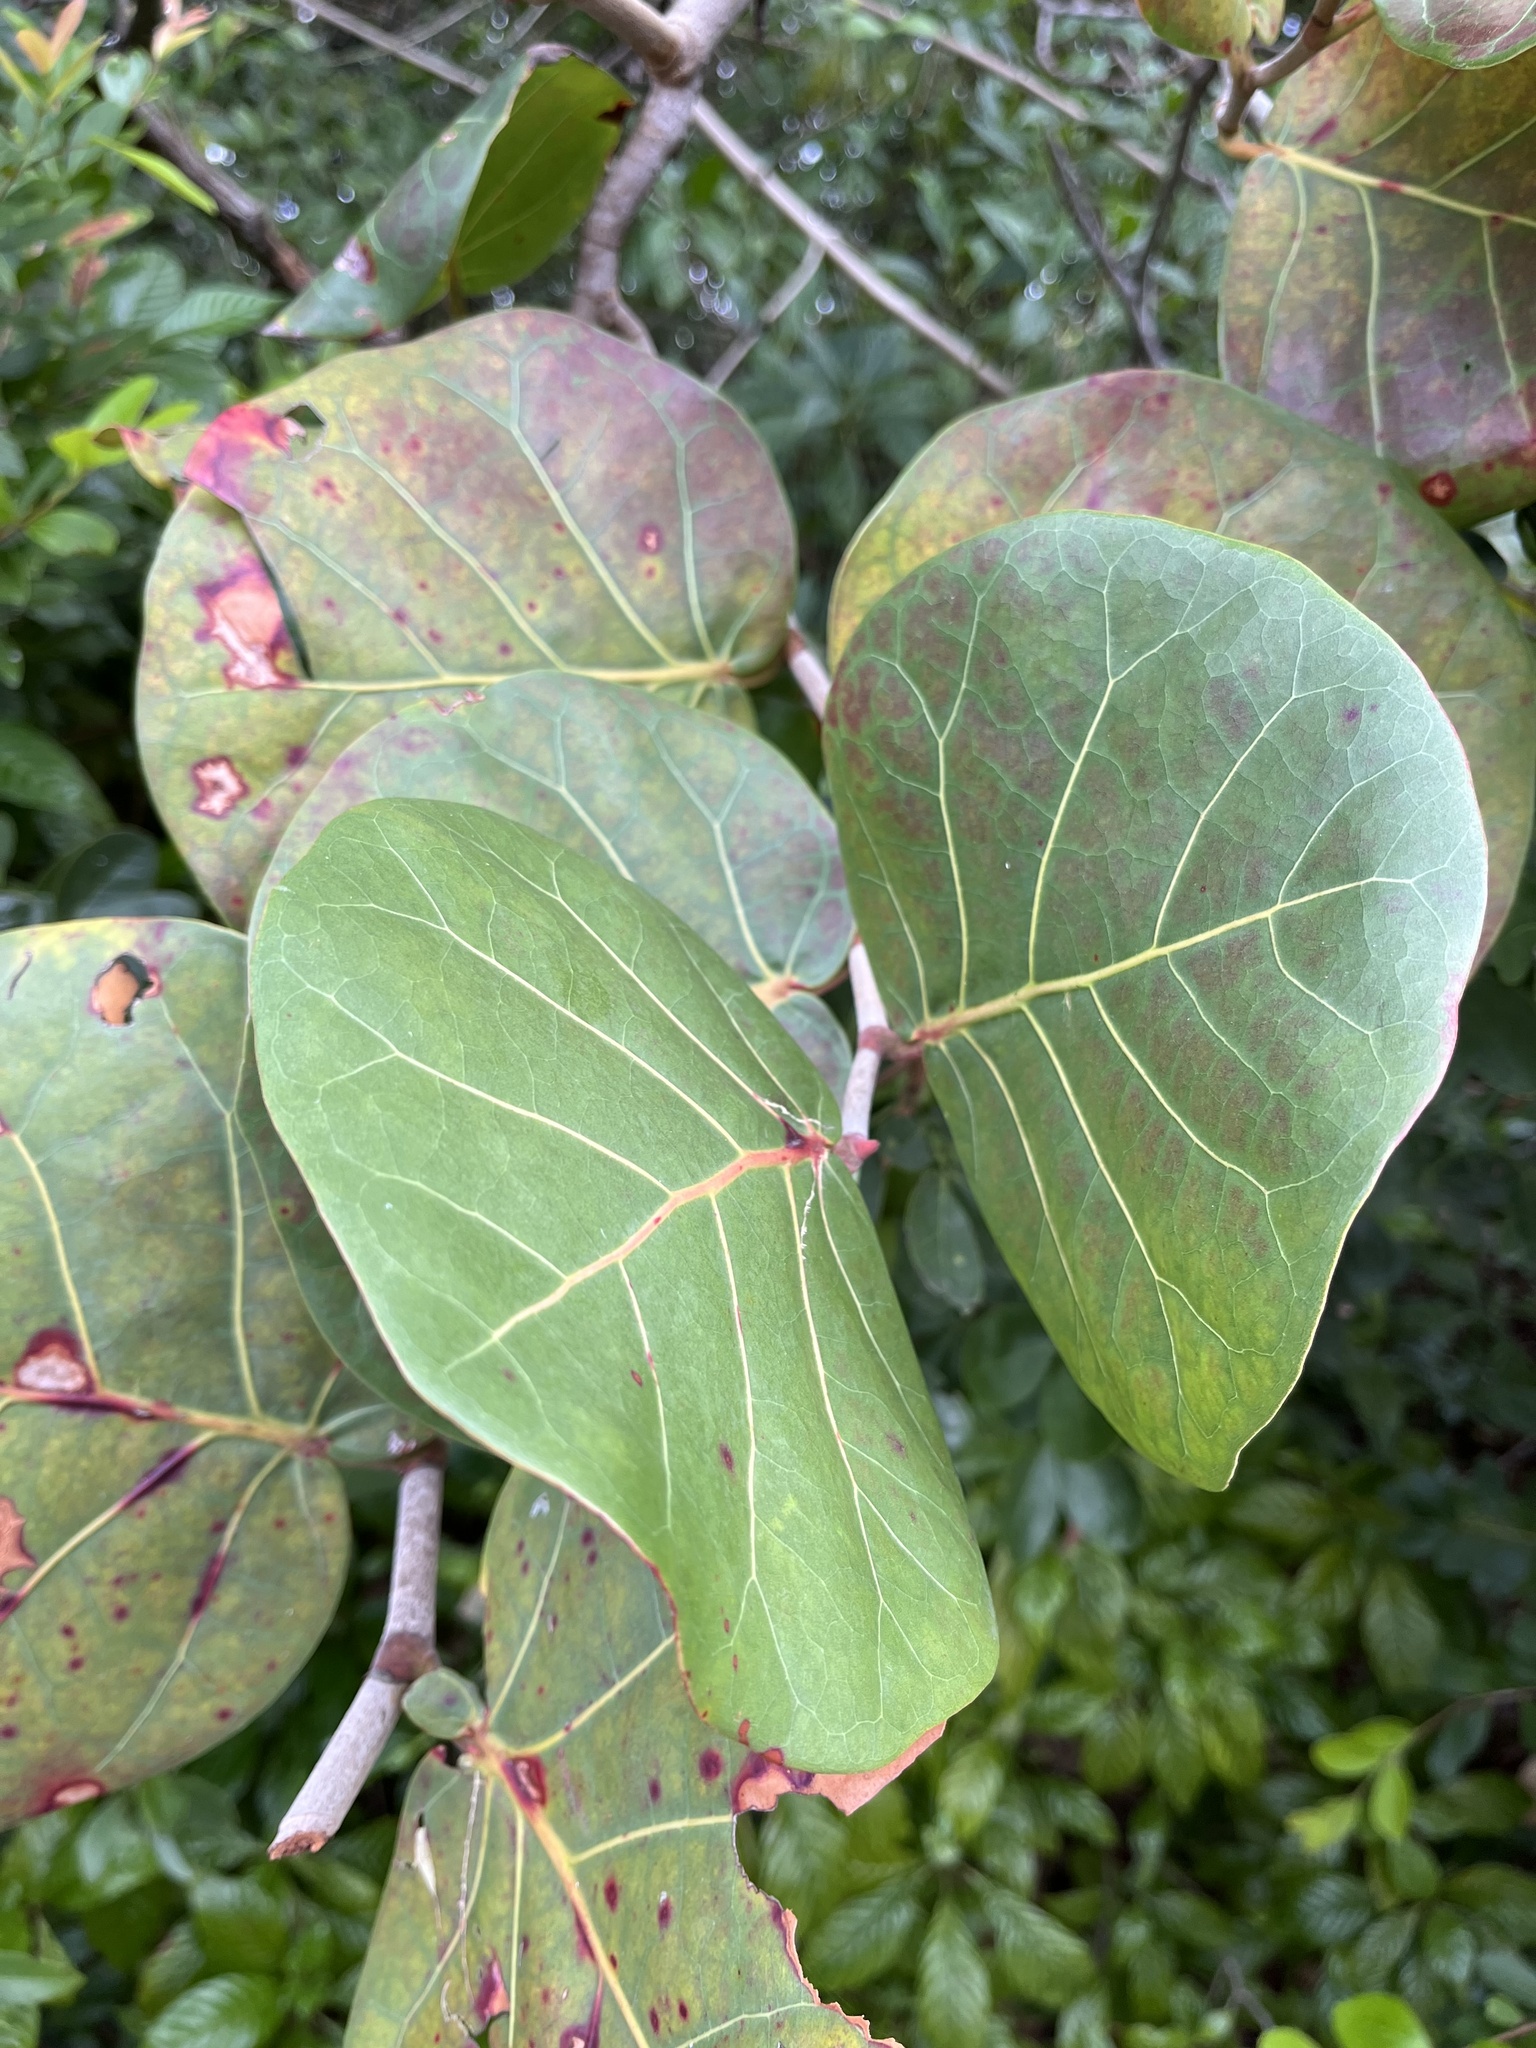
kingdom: Plantae
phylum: Tracheophyta
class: Magnoliopsida
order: Caryophyllales
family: Polygonaceae
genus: Coccoloba
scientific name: Coccoloba uvifera
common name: Seagrape
